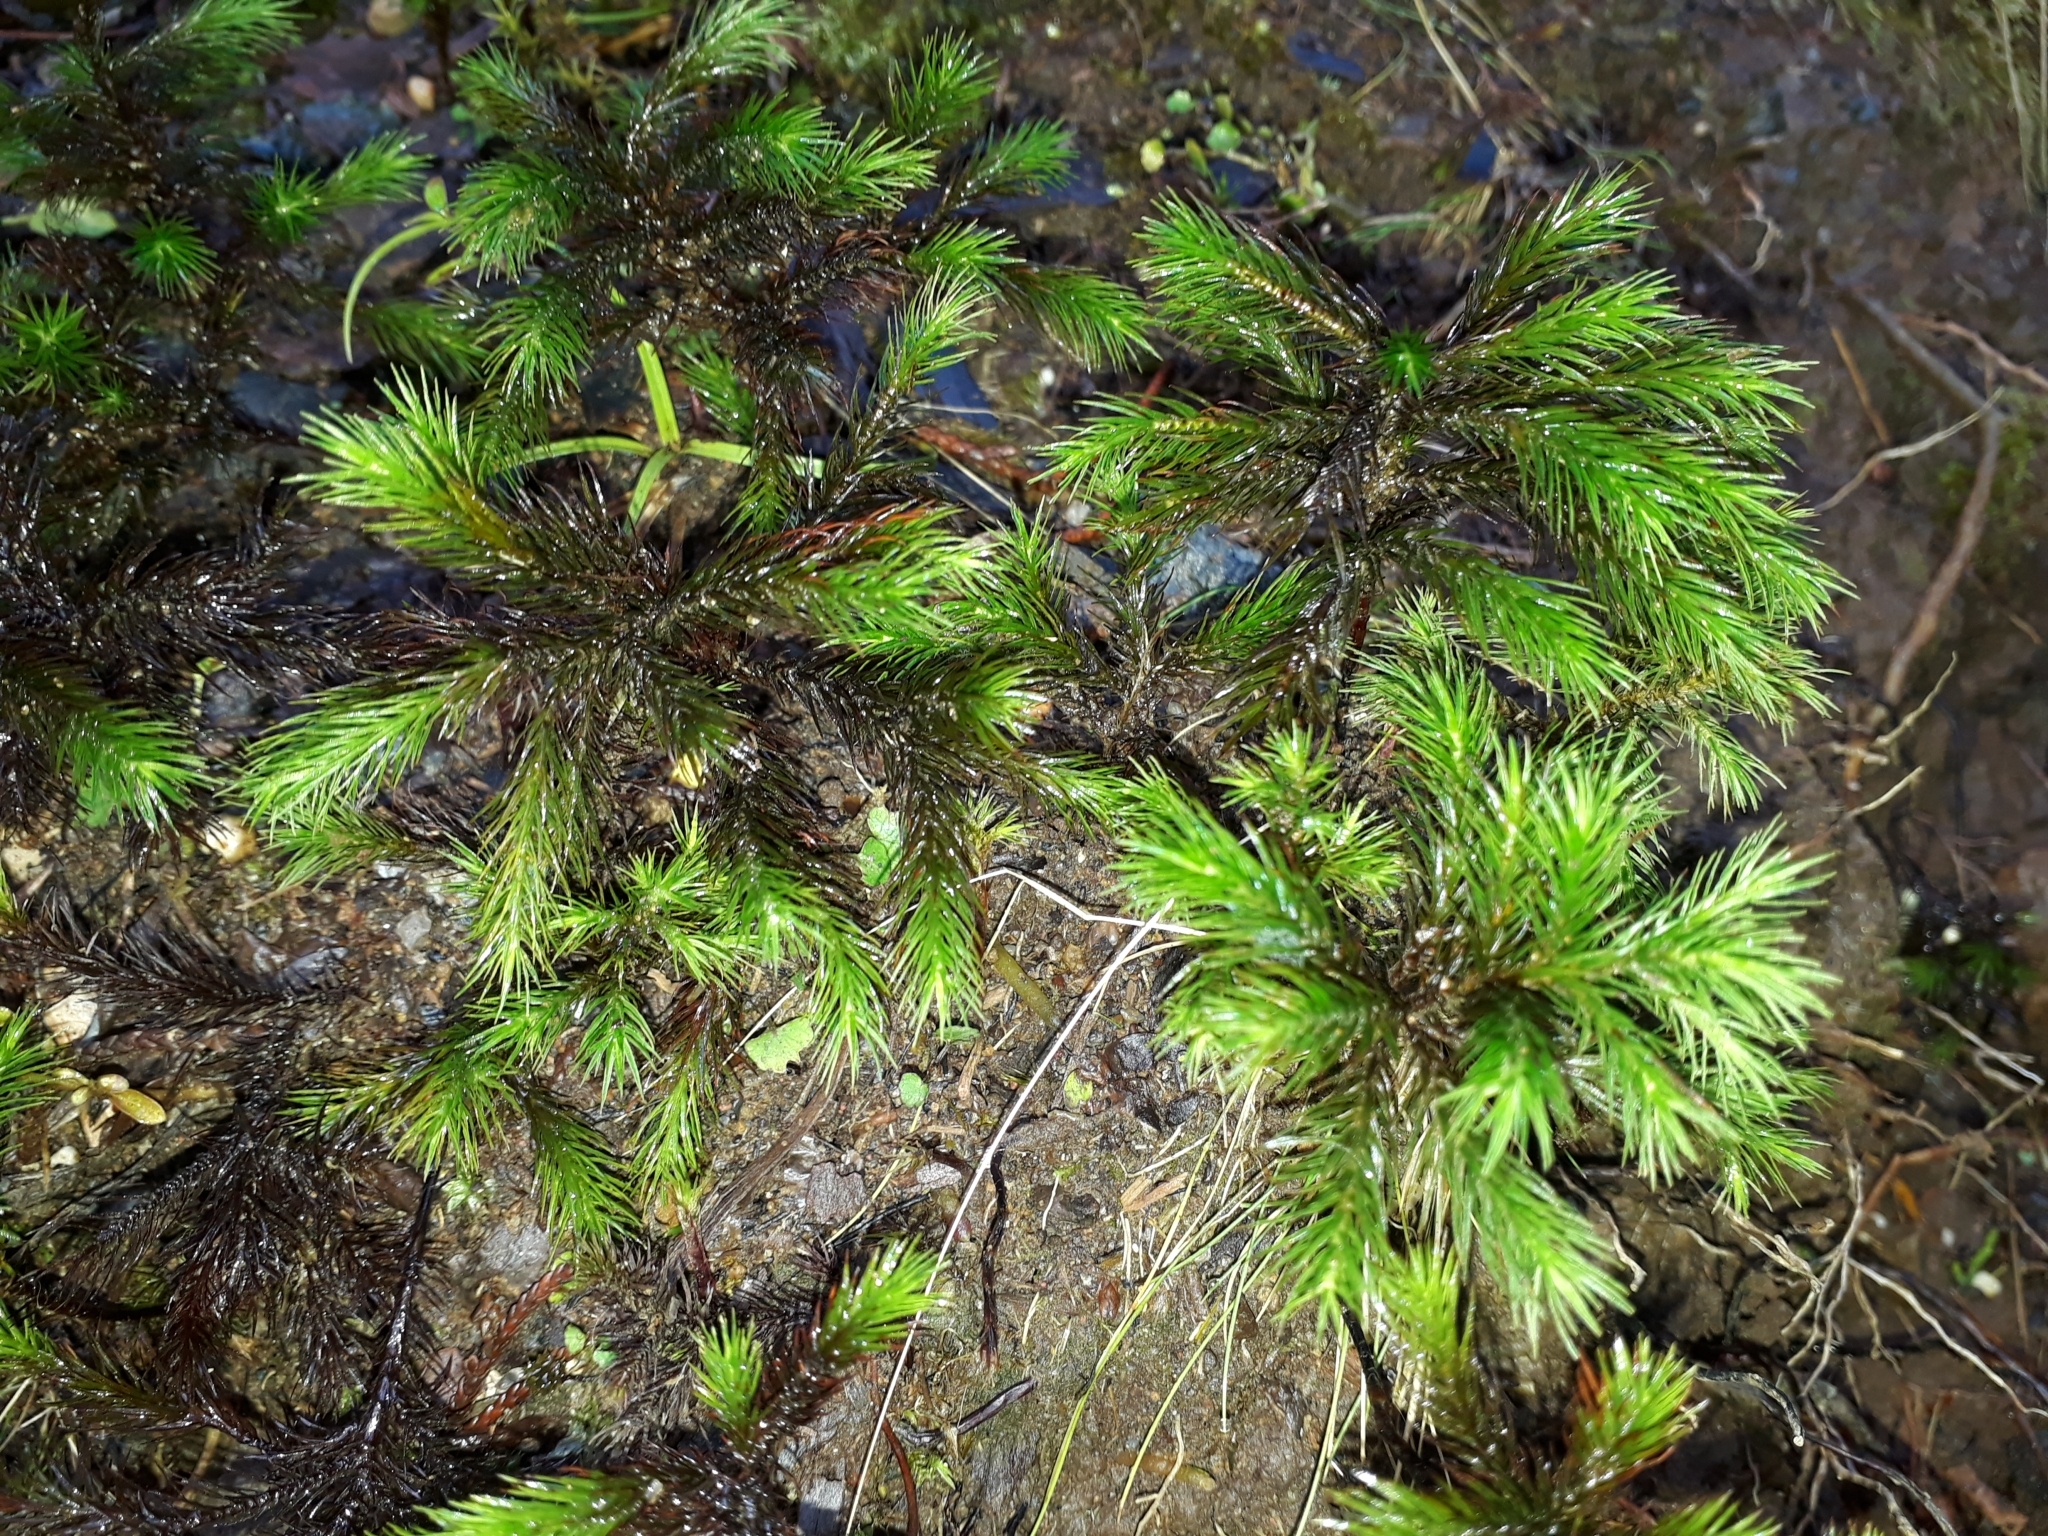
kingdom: Plantae
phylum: Bryophyta
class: Polytrichopsida
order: Polytrichales
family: Polytrichaceae
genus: Dendroligotrichum
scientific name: Dendroligotrichum tongariroense
